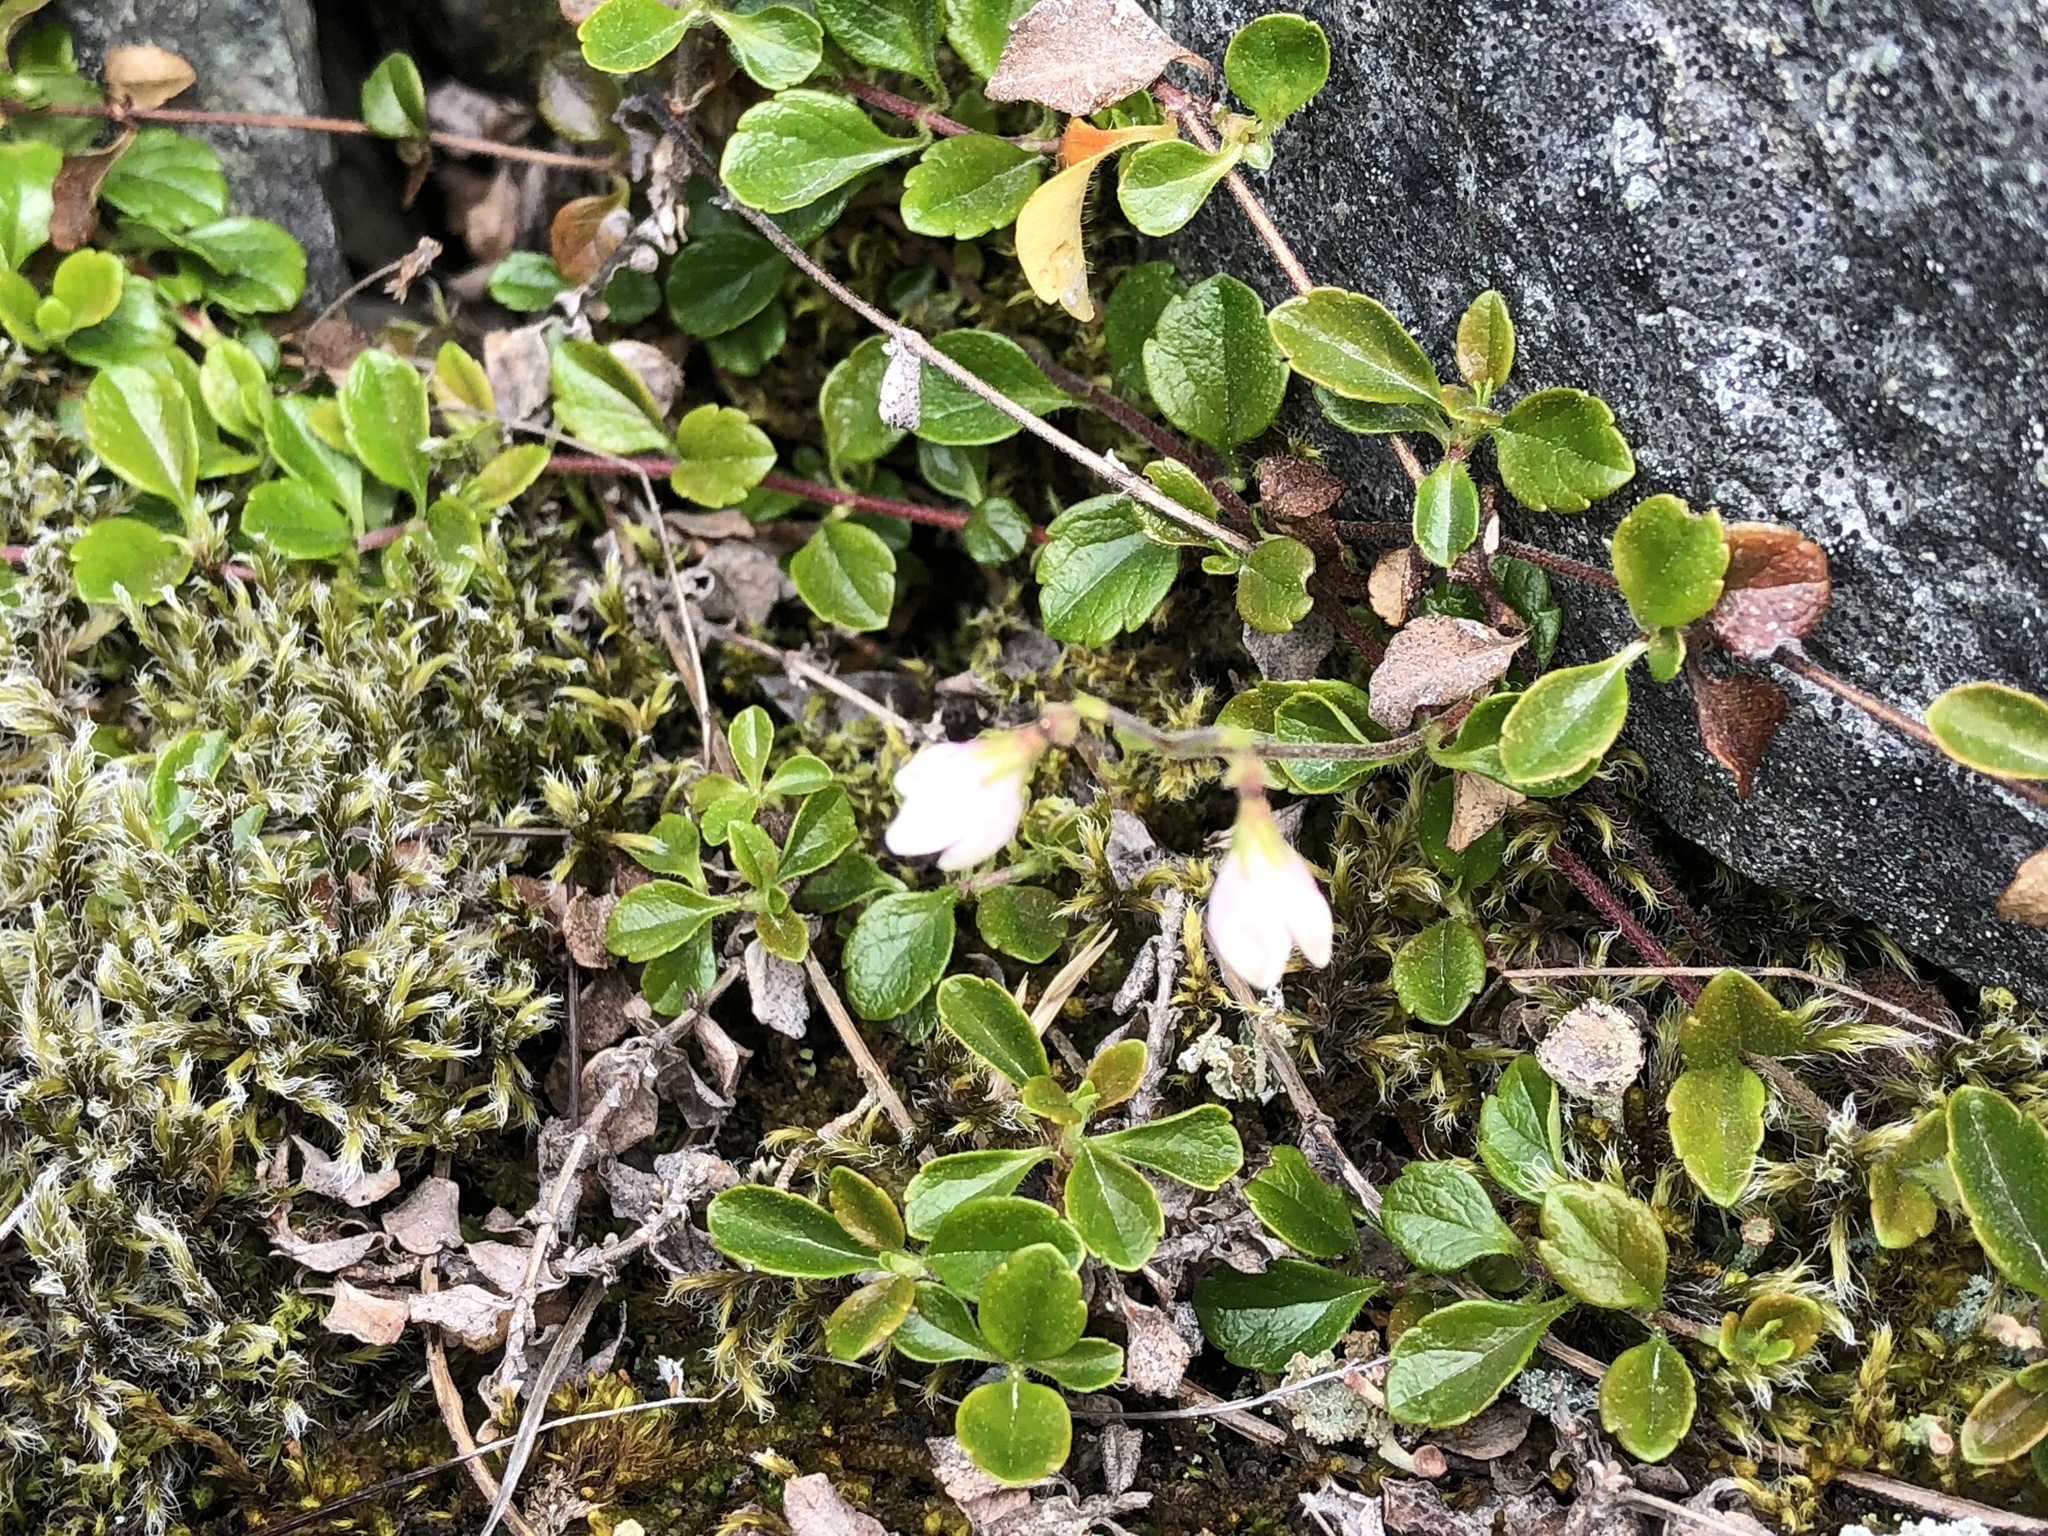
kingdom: Plantae
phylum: Tracheophyta
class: Magnoliopsida
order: Dipsacales
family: Caprifoliaceae
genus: Linnaea
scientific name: Linnaea borealis
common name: Twinflower
